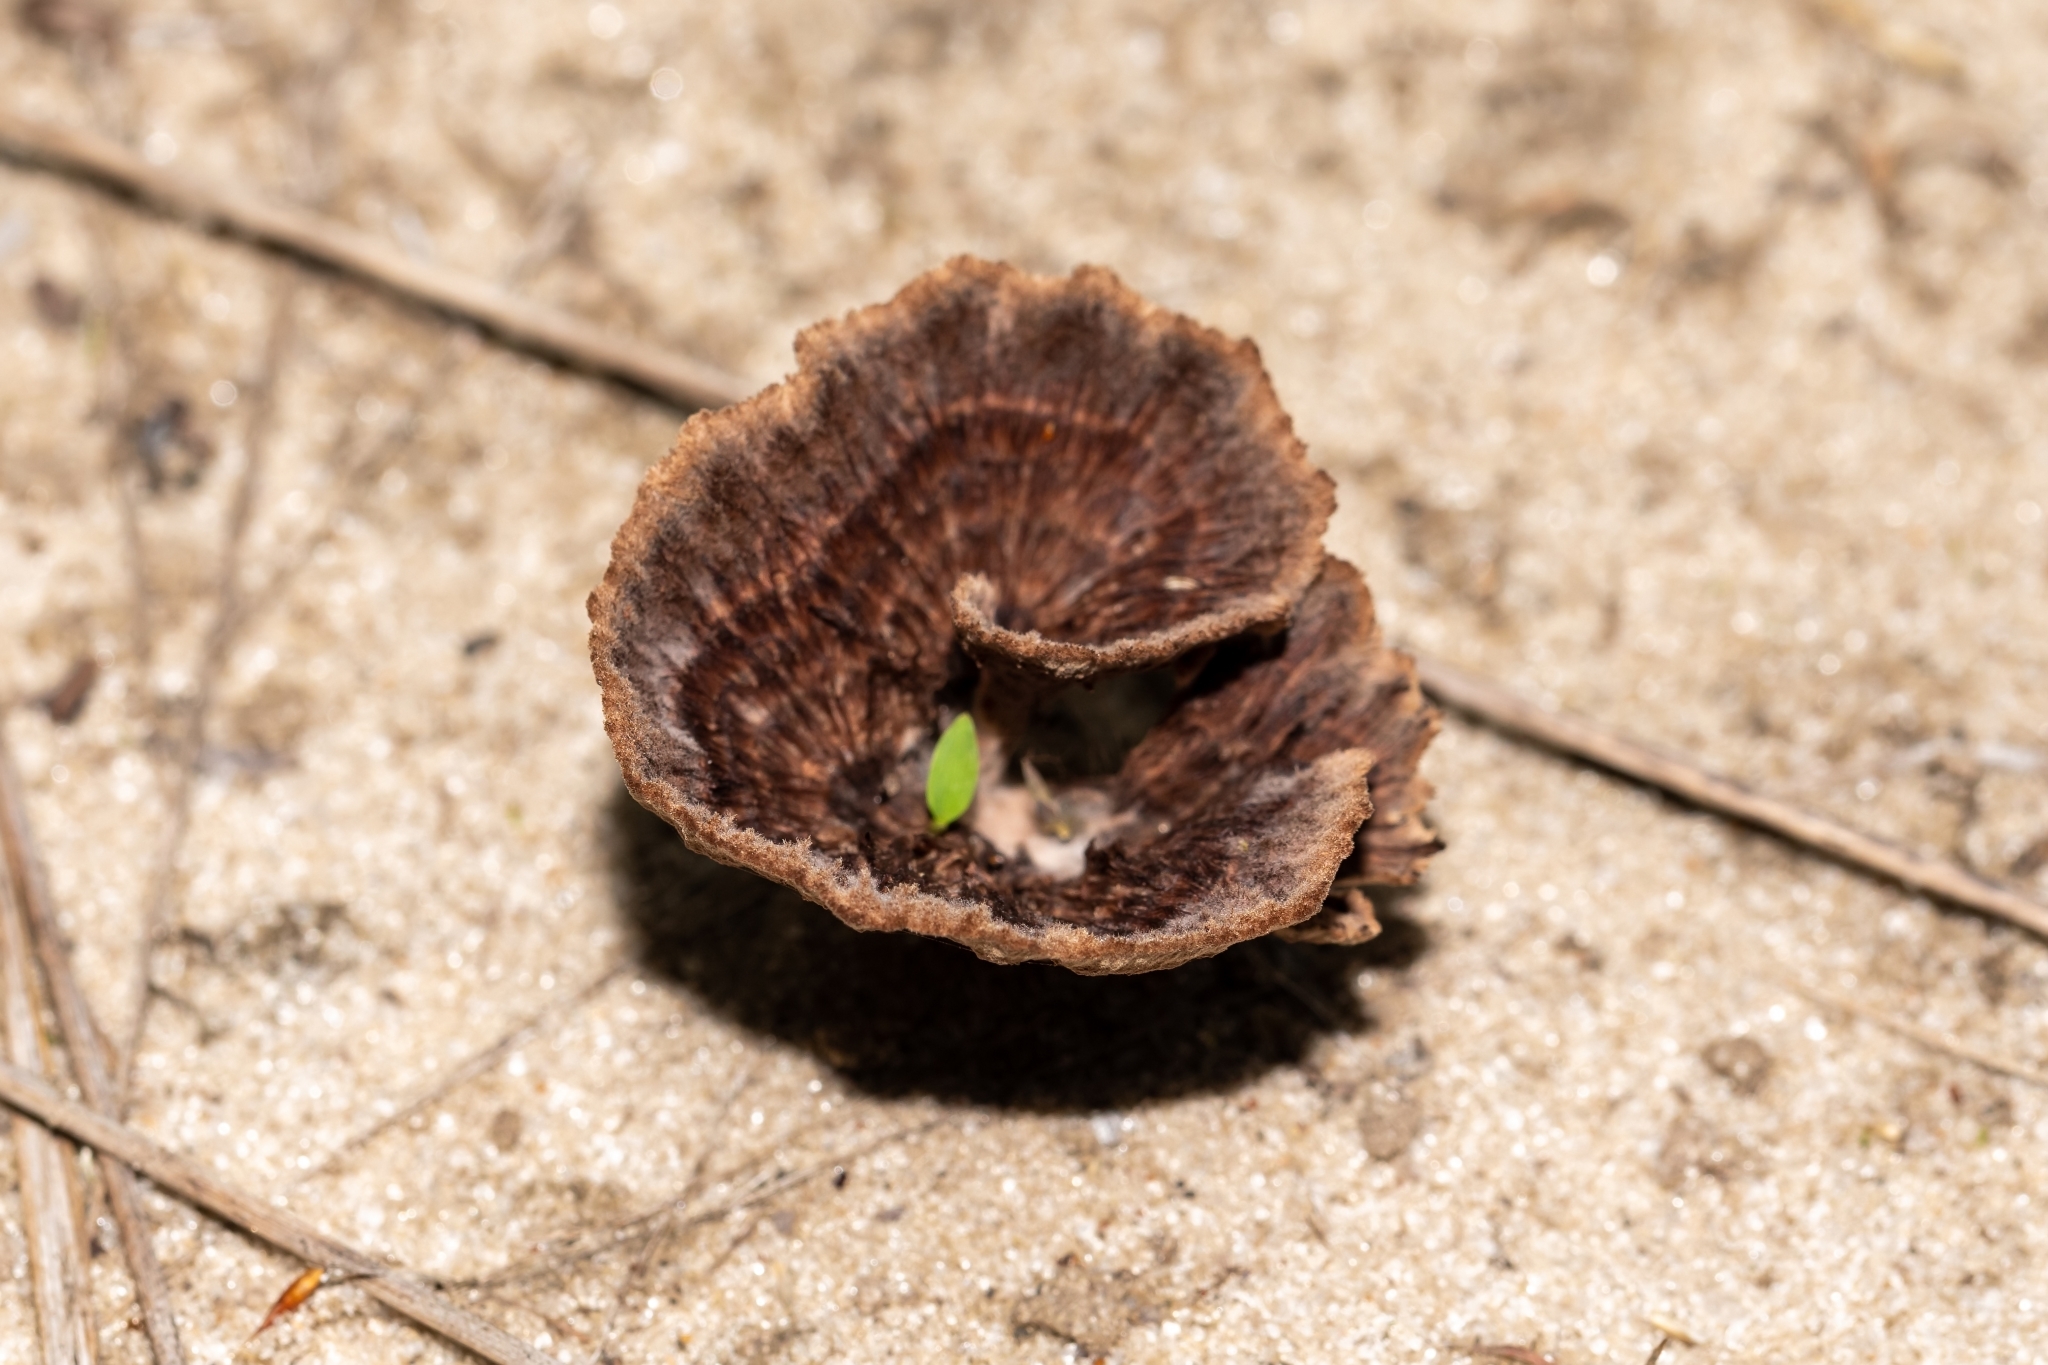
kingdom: Fungi
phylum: Basidiomycota
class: Agaricomycetes
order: Thelephorales
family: Thelephoraceae
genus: Thelephora
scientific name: Thelephora terrestris
